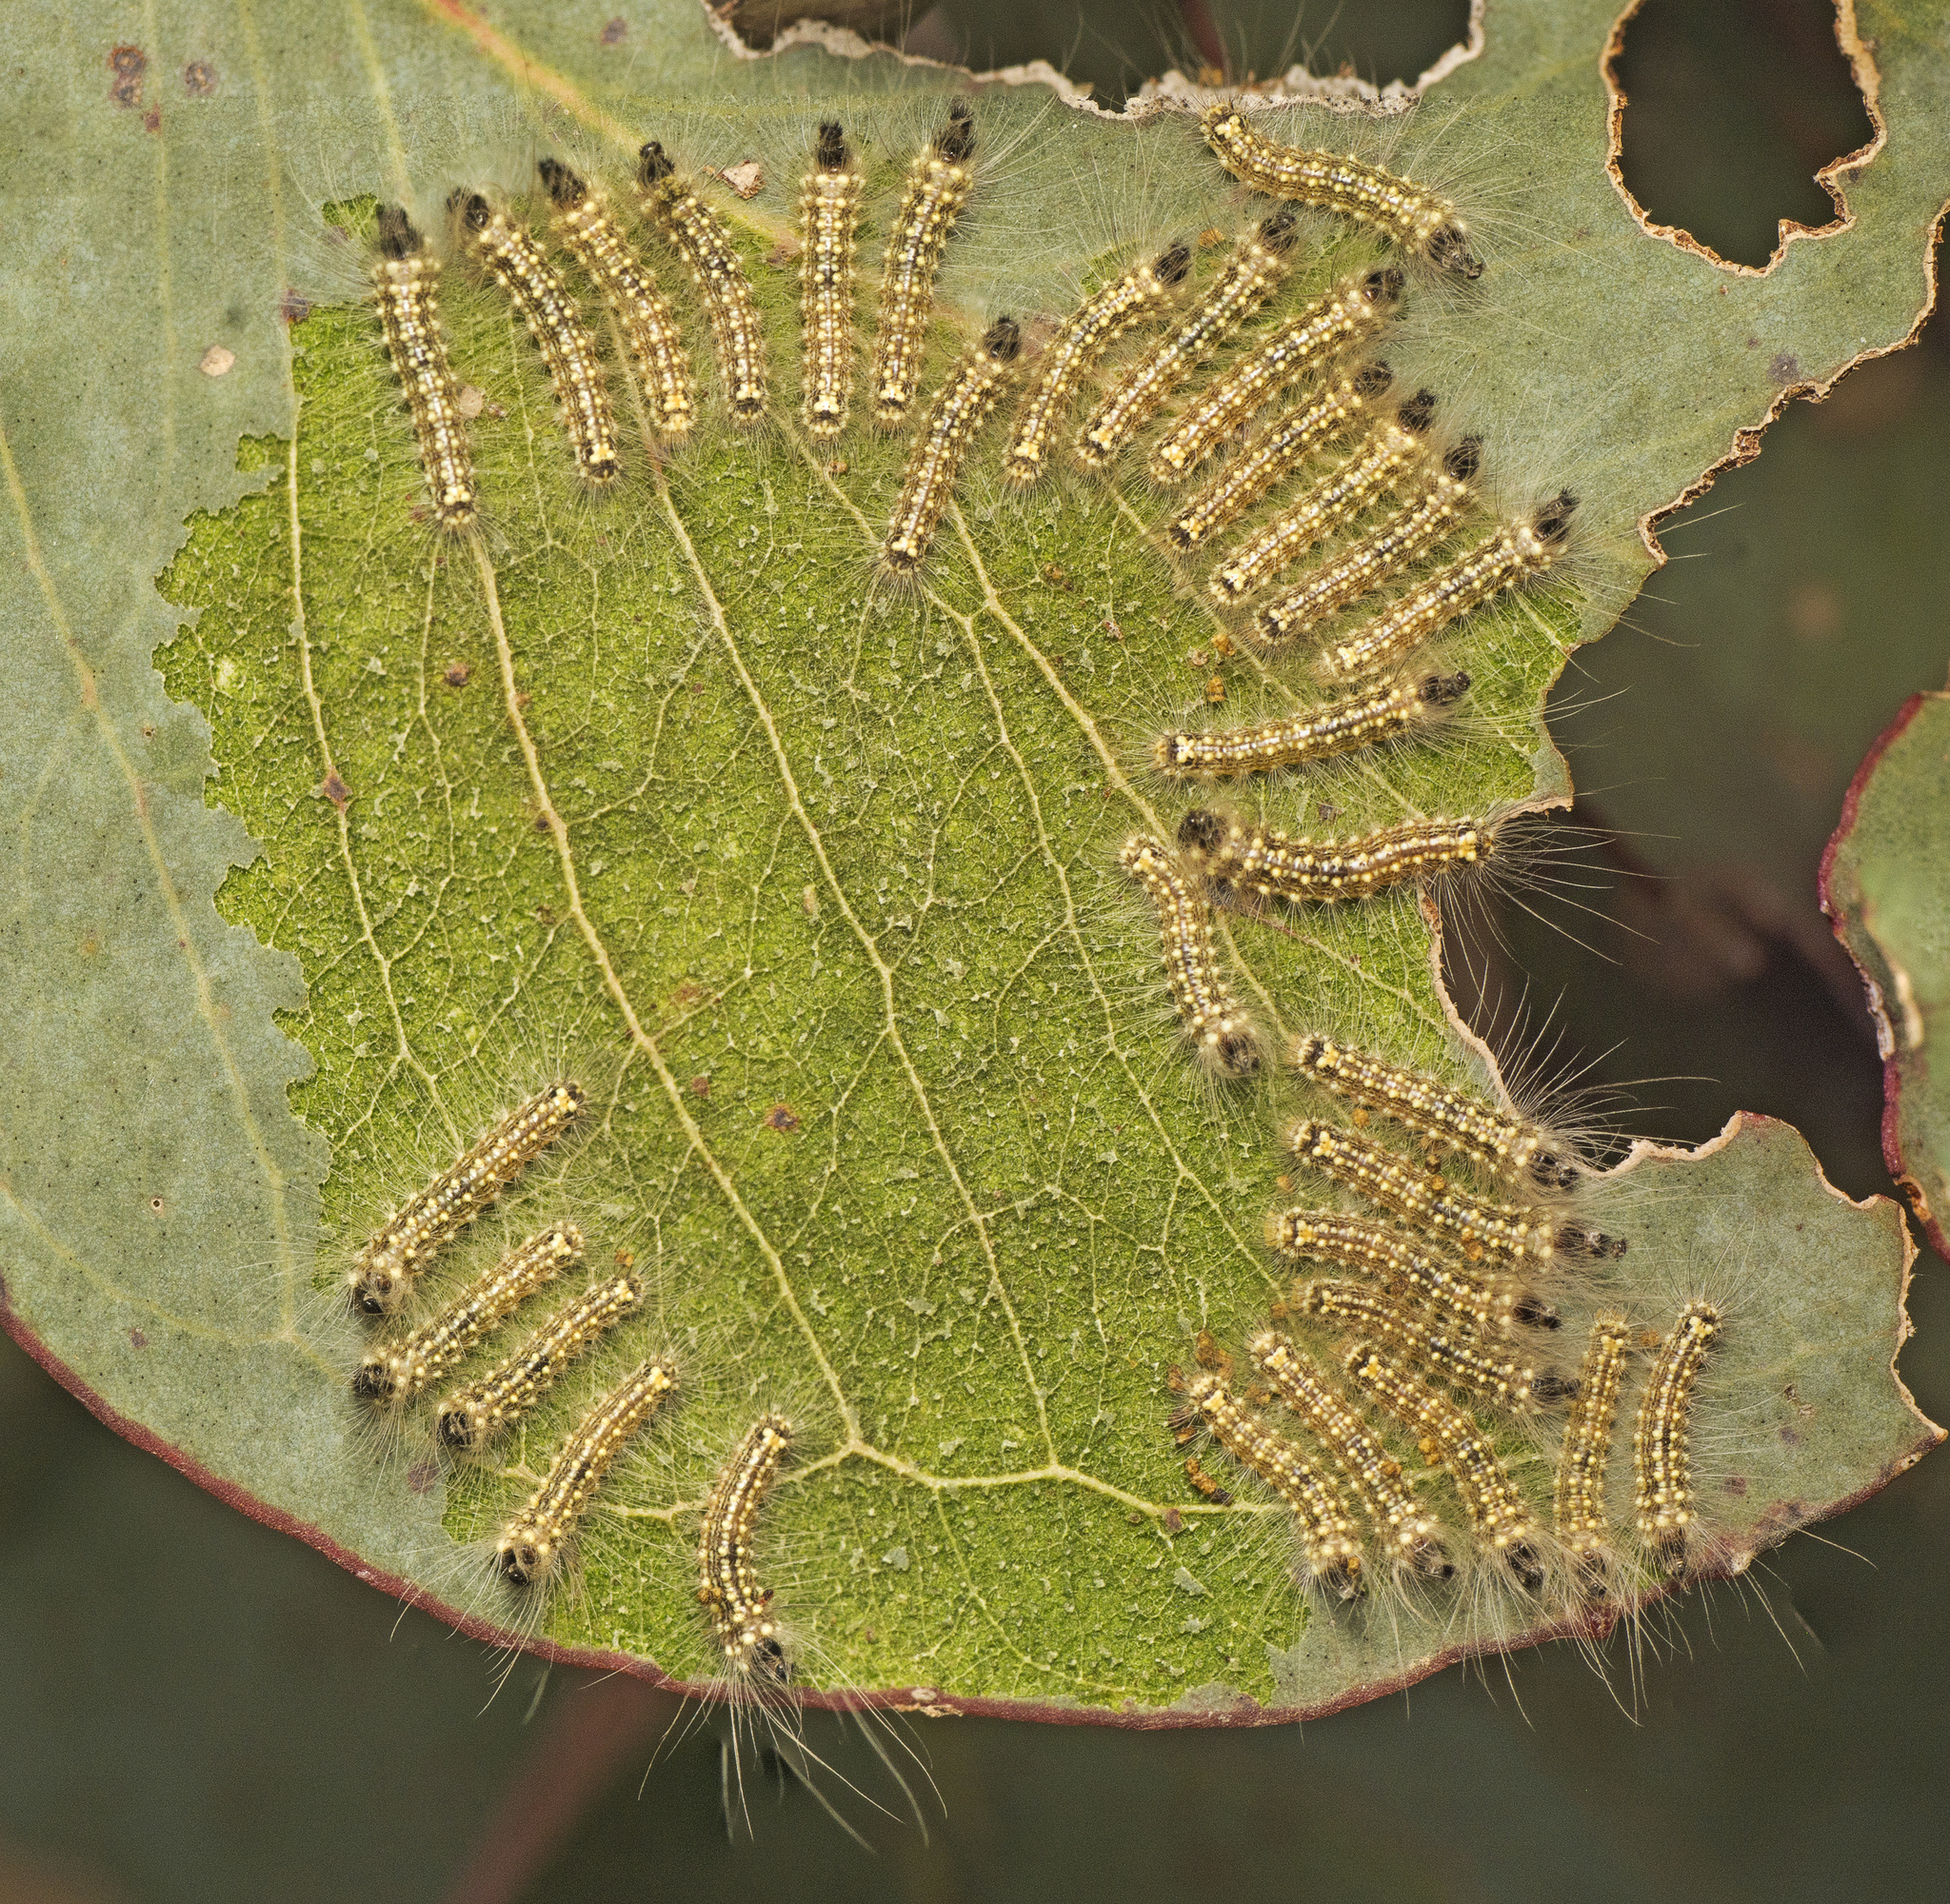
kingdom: Animalia
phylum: Arthropoda
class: Insecta
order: Lepidoptera
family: Nolidae
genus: Uraba
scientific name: Uraba lugens
